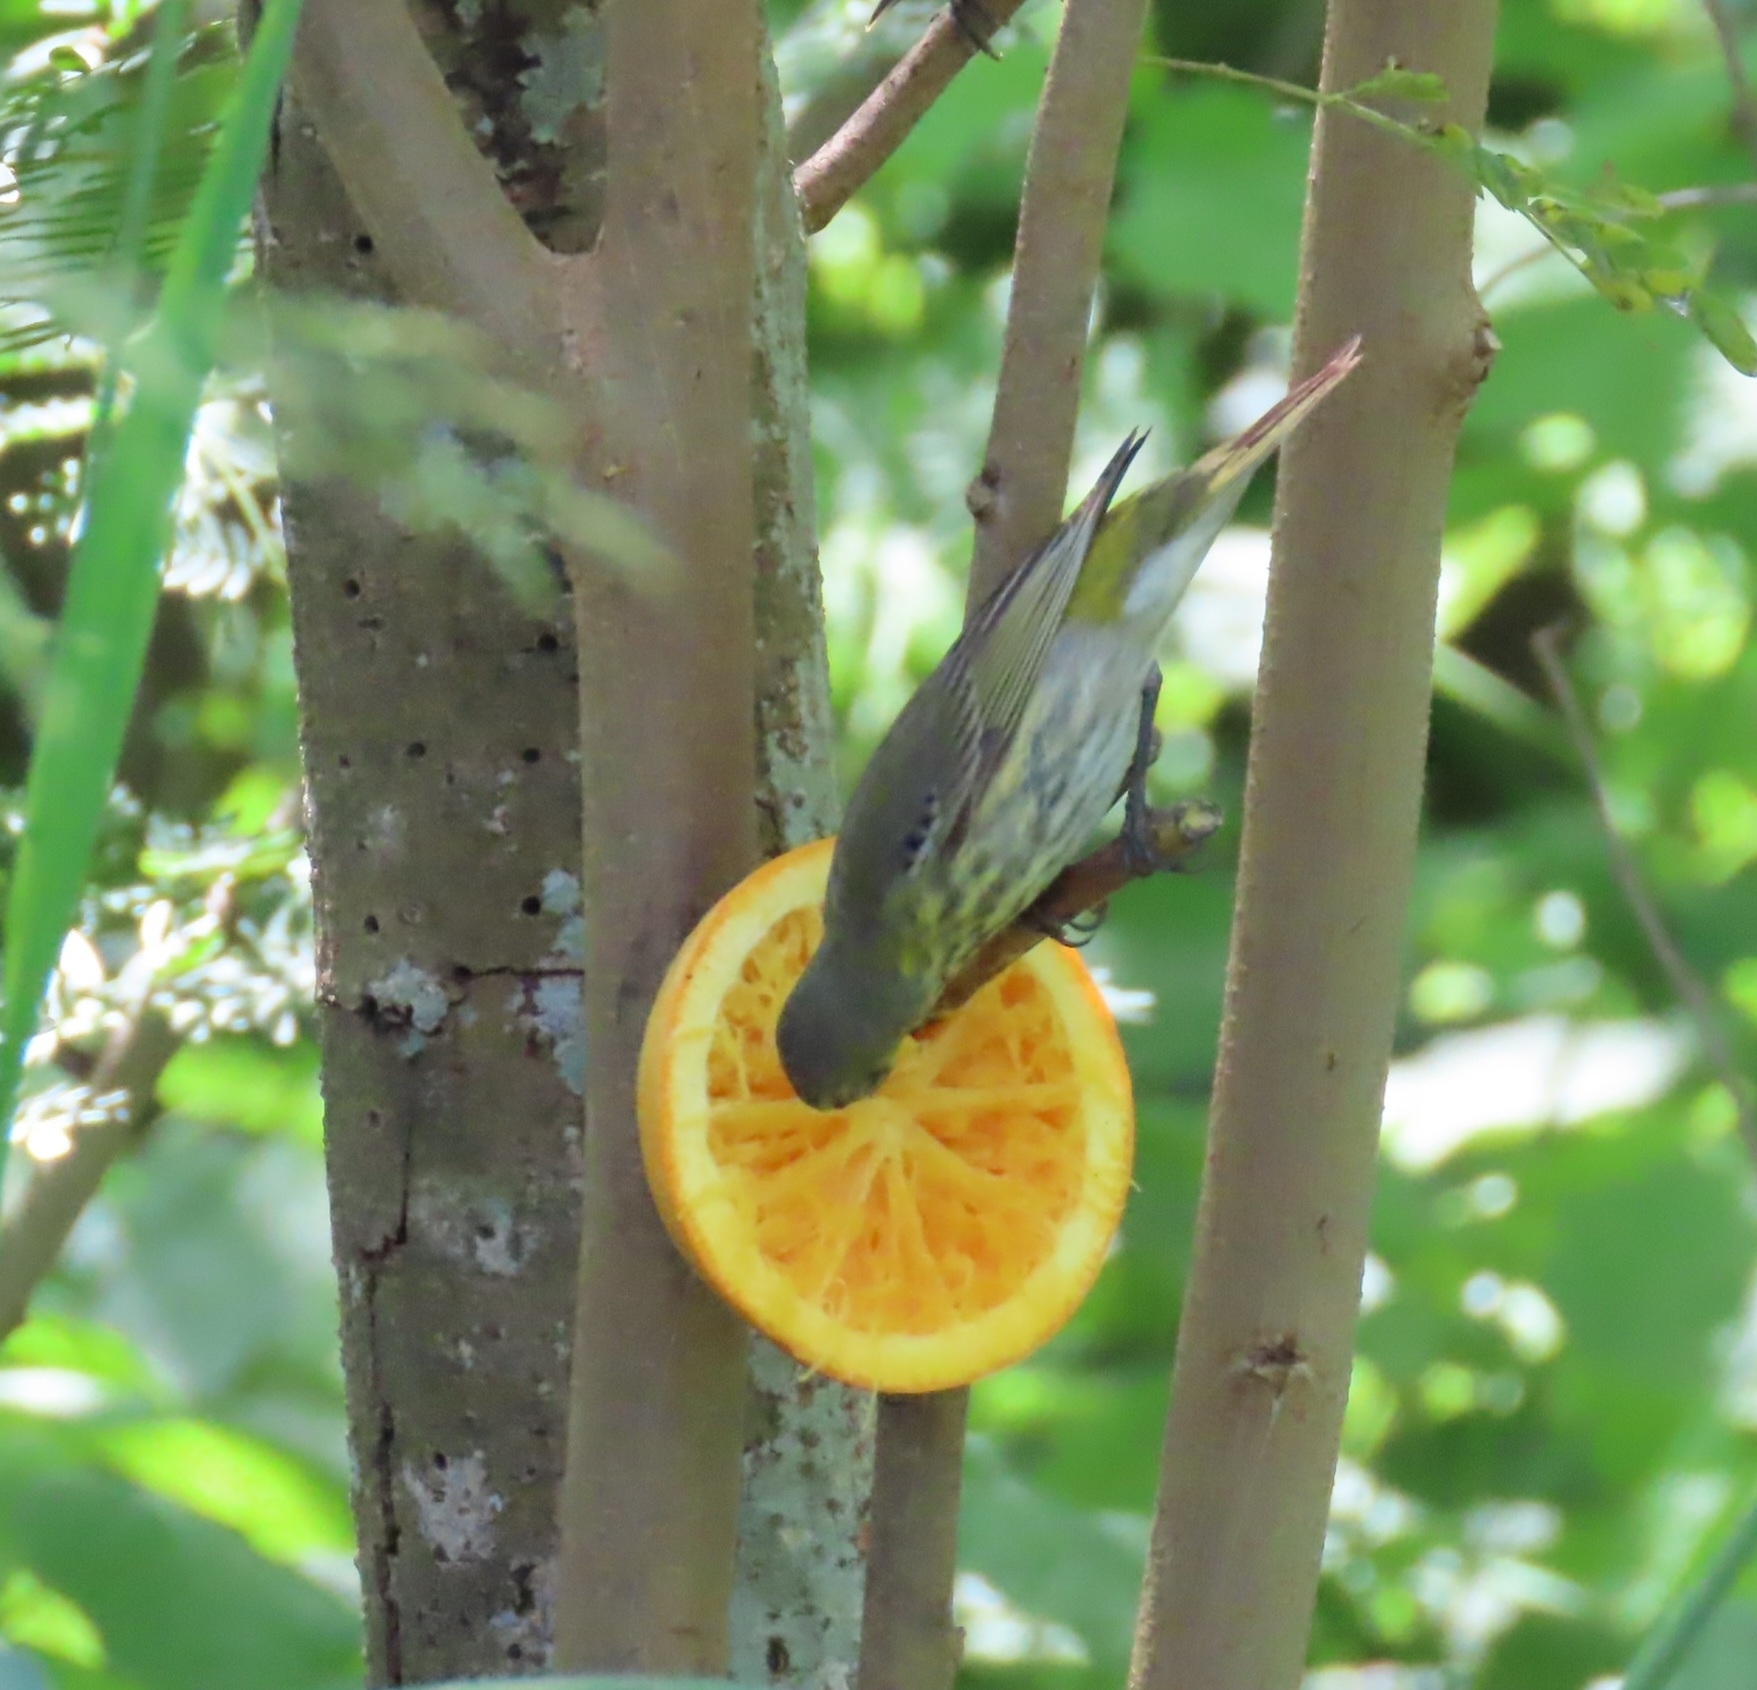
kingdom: Animalia
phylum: Chordata
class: Aves
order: Passeriformes
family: Parulidae
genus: Setophaga
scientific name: Setophaga tigrina
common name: Cape may warbler
